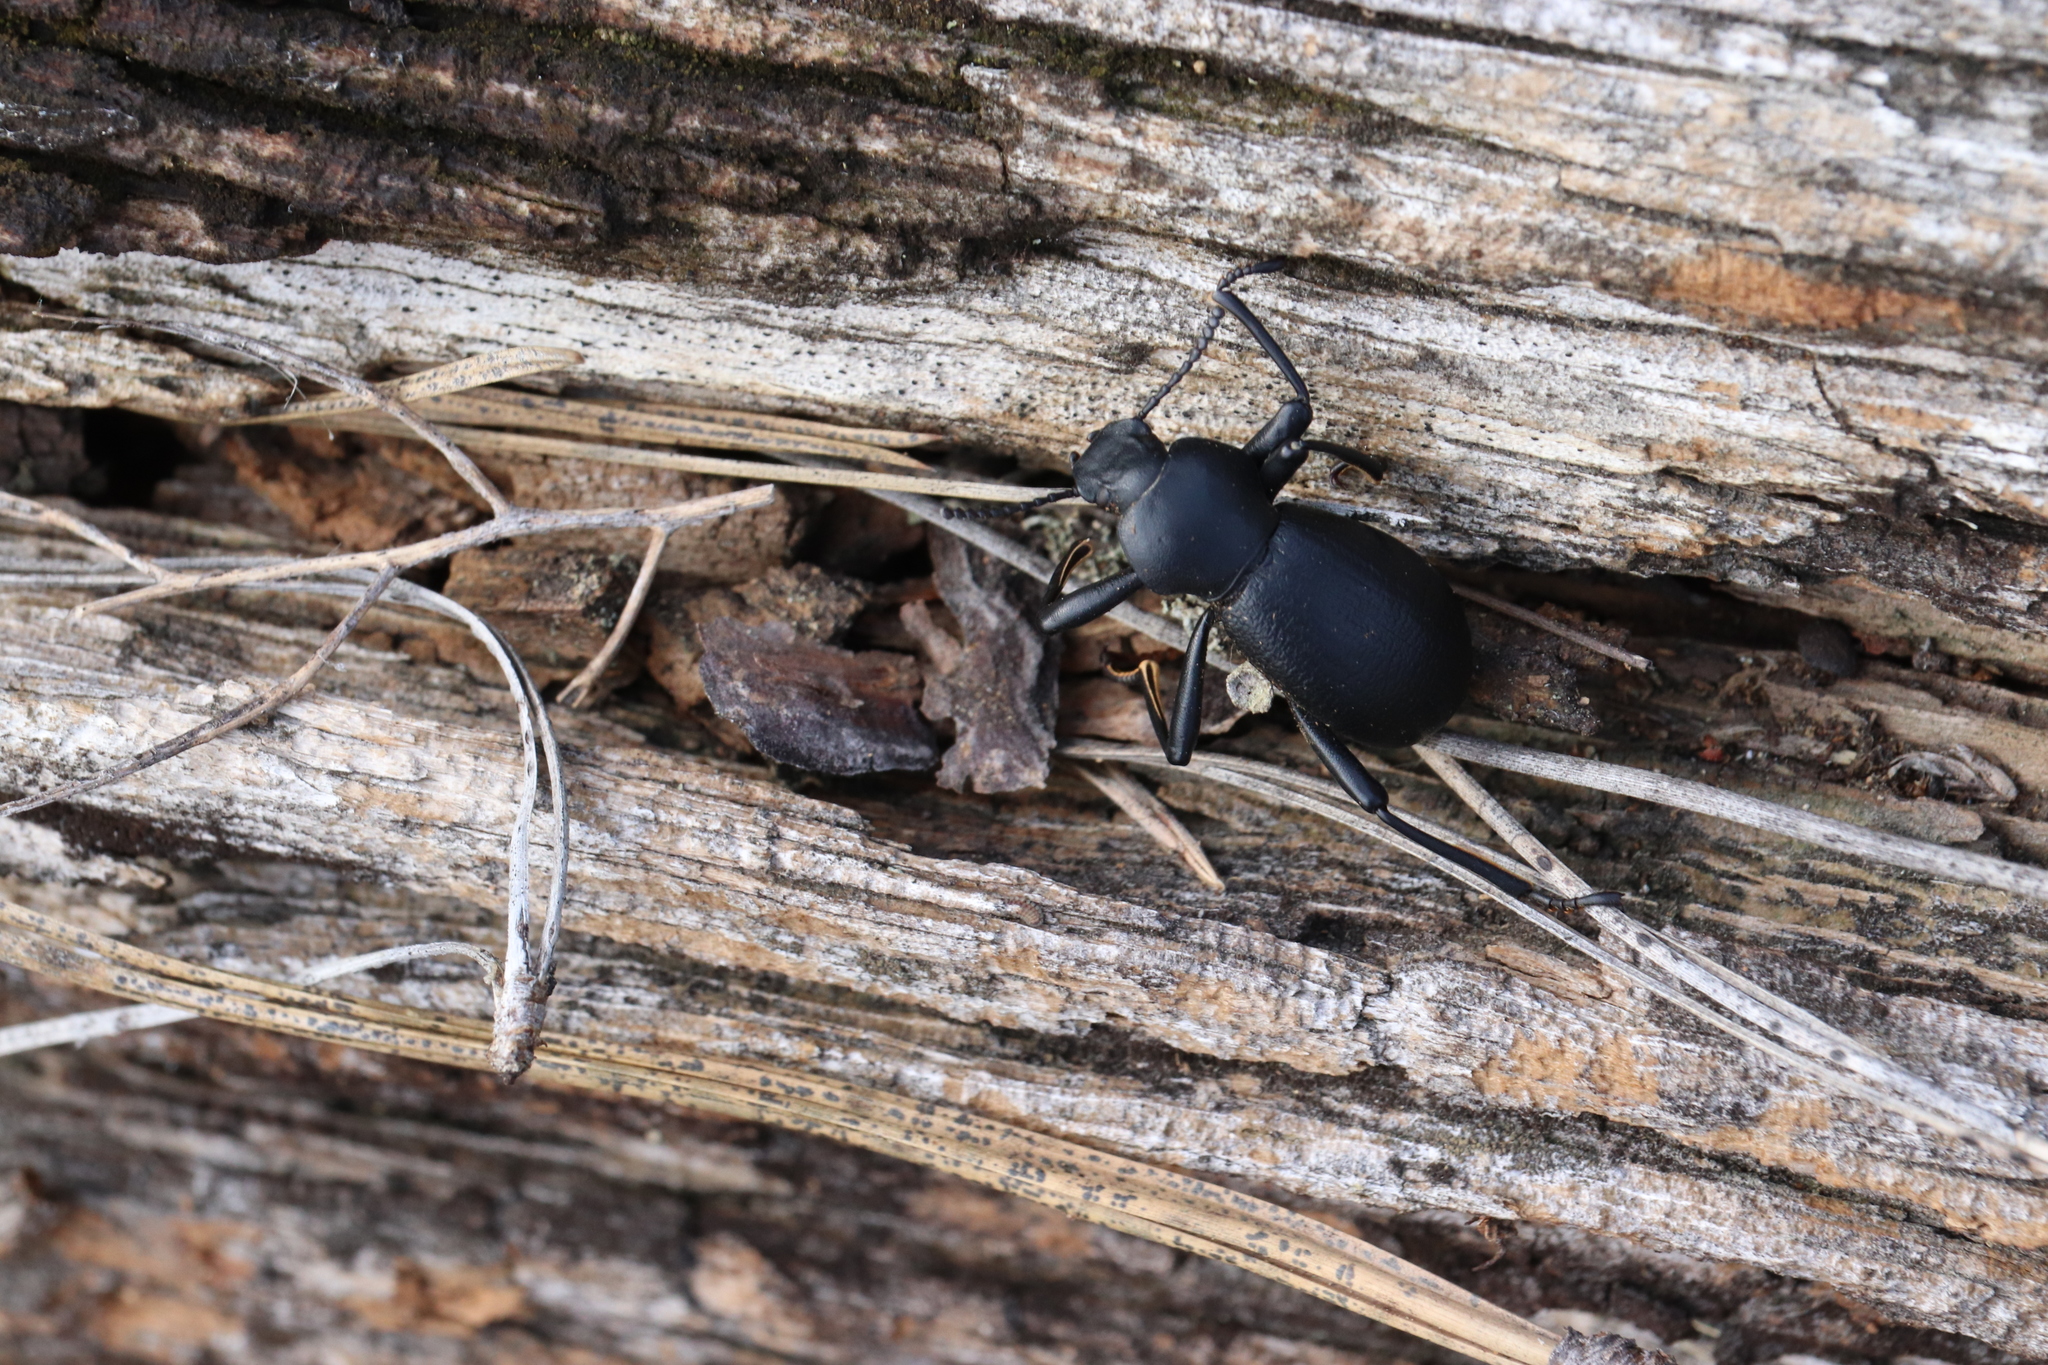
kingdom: Animalia
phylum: Arthropoda
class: Insecta
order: Coleoptera
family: Tenebrionidae
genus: Coelocnemis
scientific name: Coelocnemis dilaticollis
